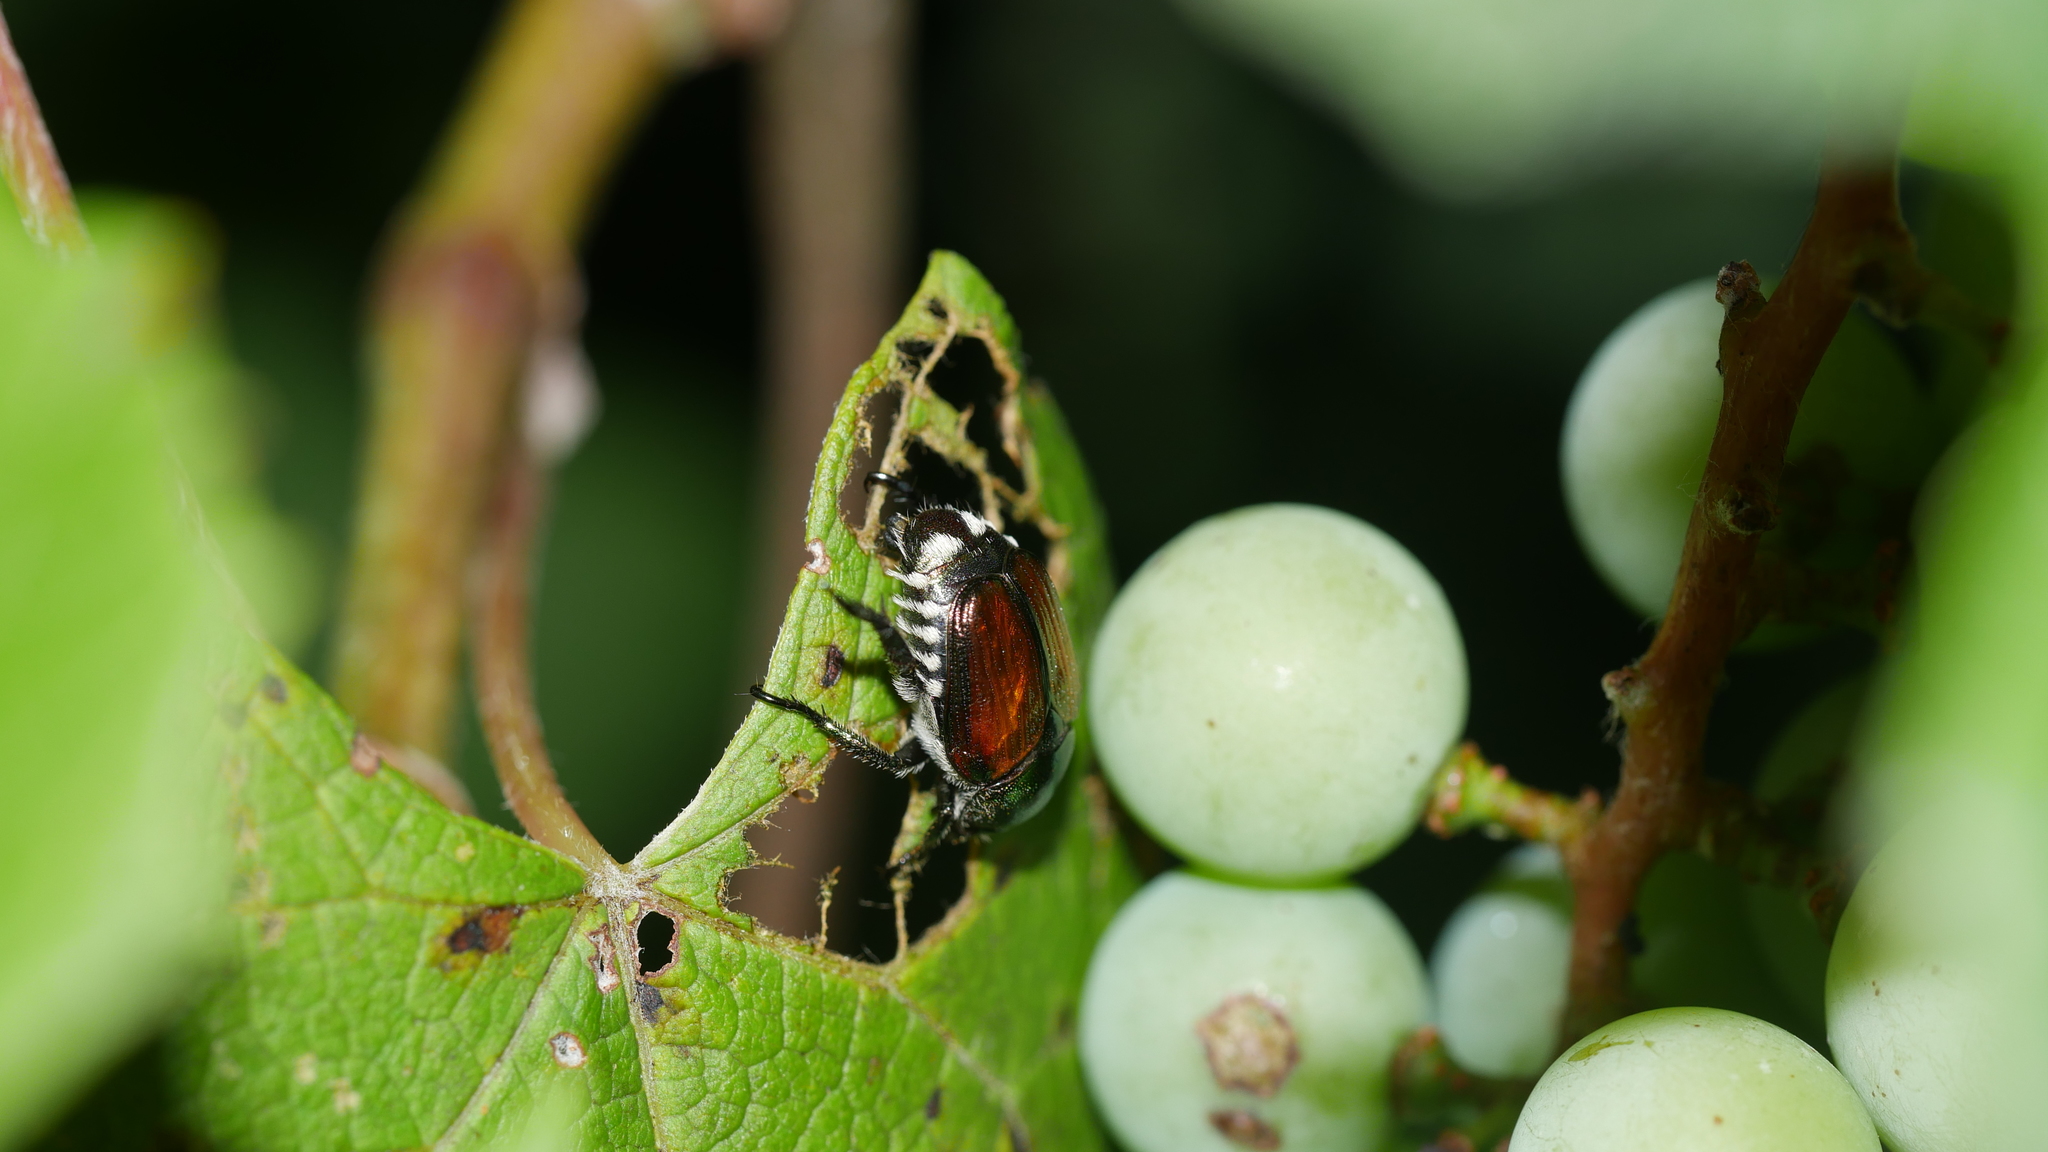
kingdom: Animalia
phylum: Arthropoda
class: Insecta
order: Coleoptera
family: Scarabaeidae
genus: Popillia
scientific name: Popillia japonica
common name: Japanese beetle
